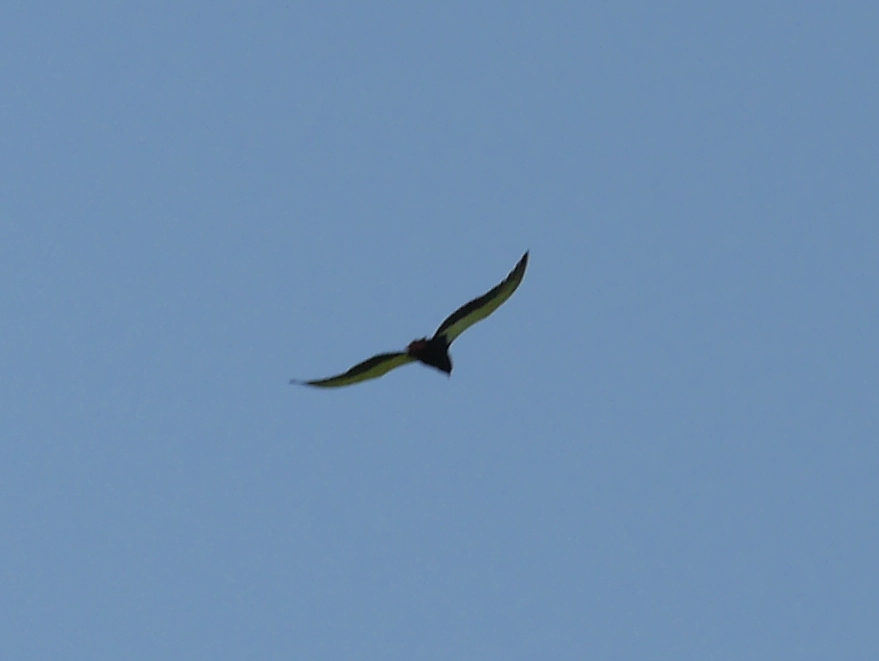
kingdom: Animalia
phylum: Chordata
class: Aves
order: Accipitriformes
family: Accipitridae
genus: Terathopius
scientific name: Terathopius ecaudatus
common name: Bateleur
